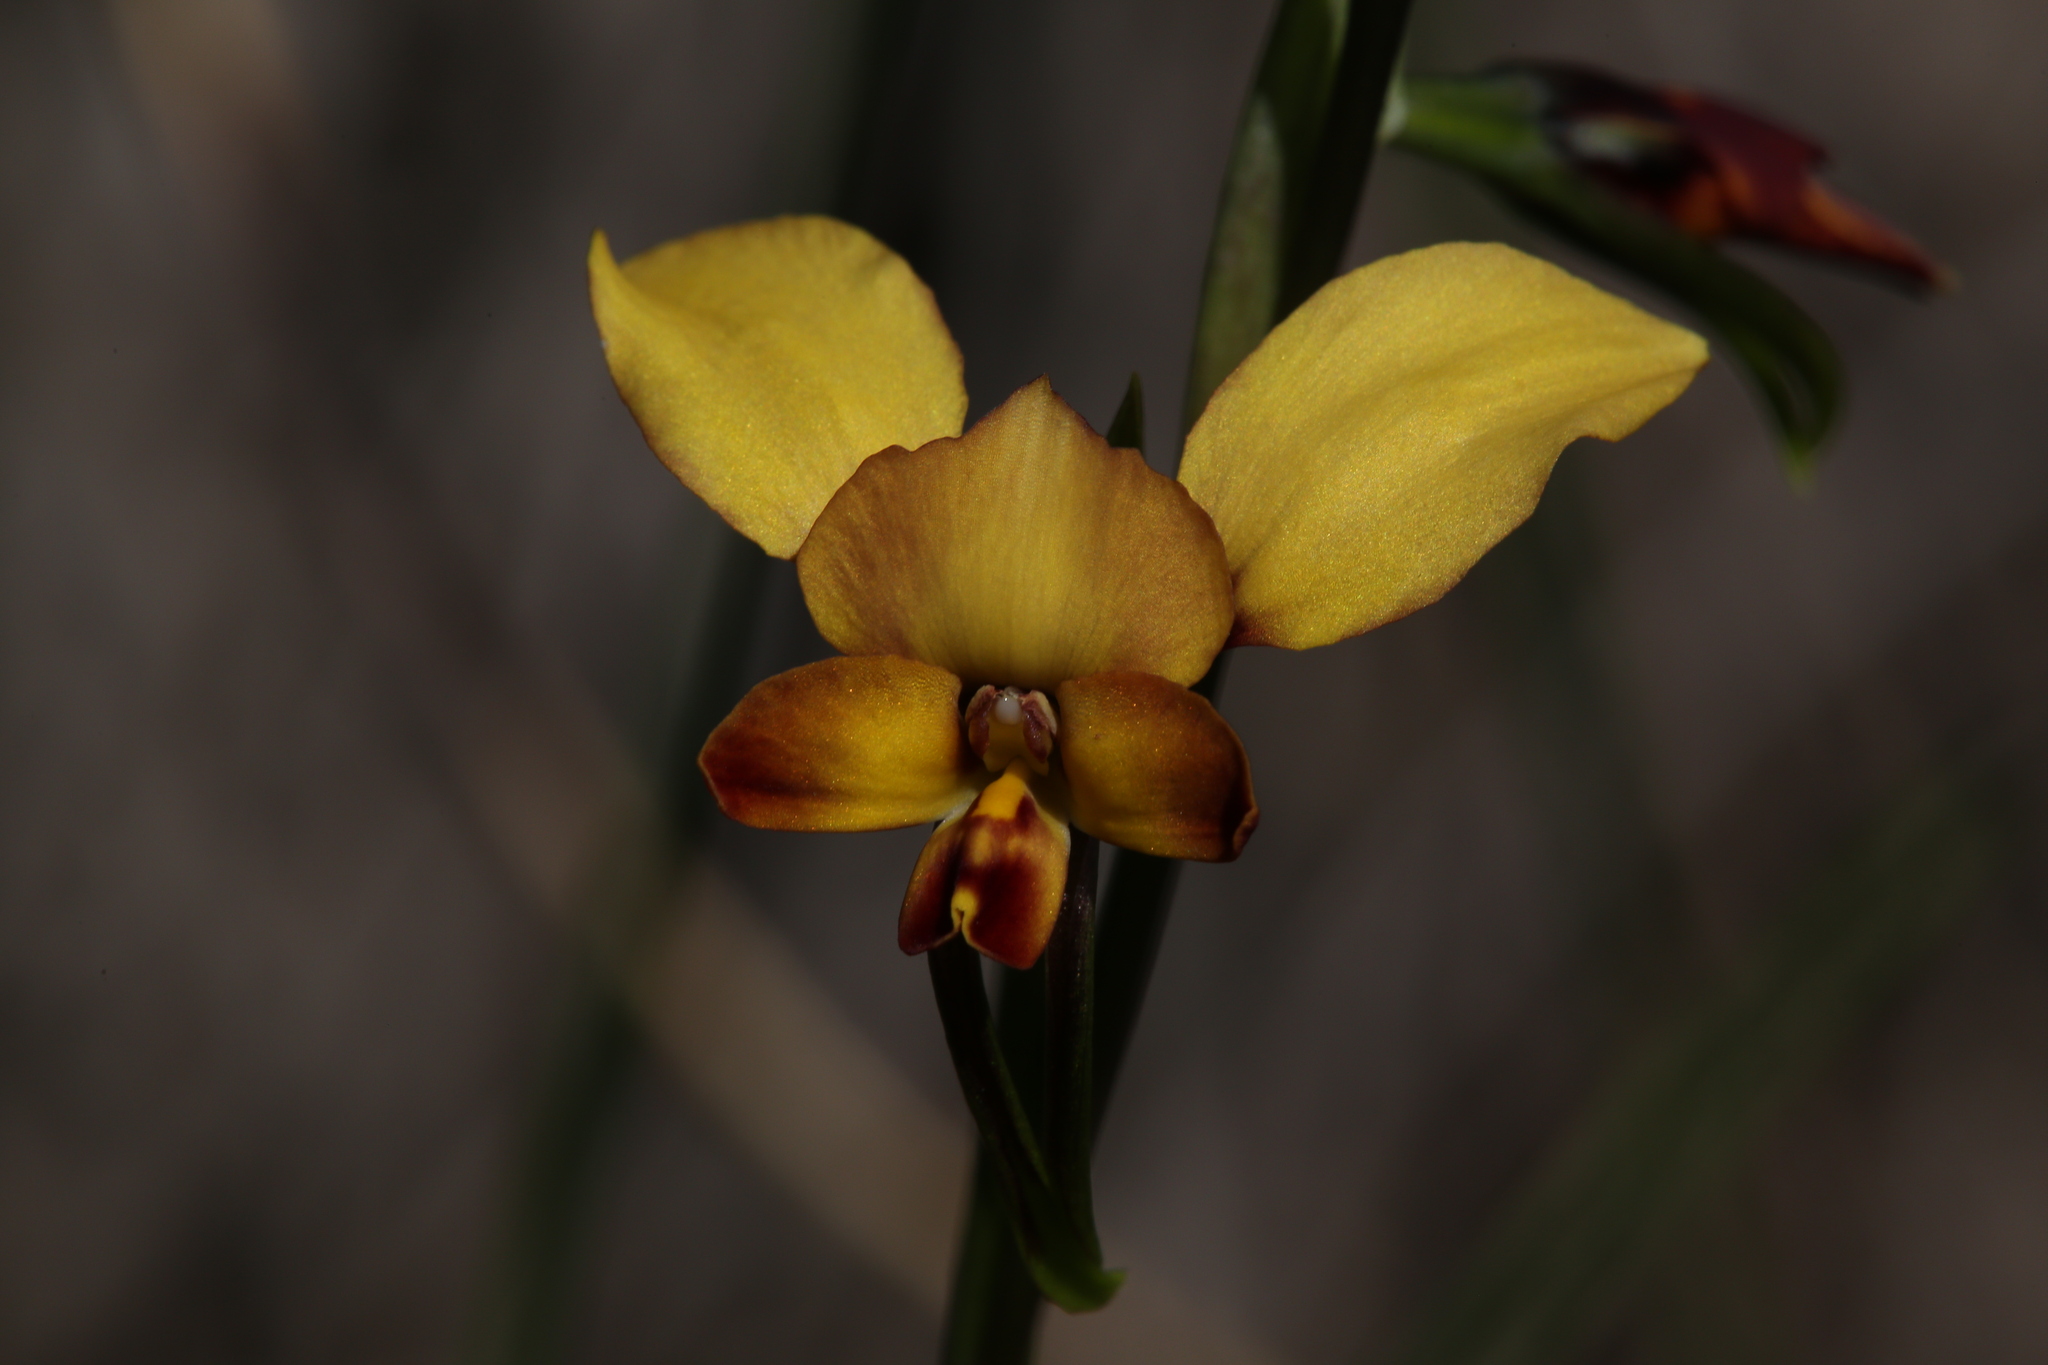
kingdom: Plantae
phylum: Tracheophyta
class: Liliopsida
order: Asparagales
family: Orchidaceae
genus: Diuris
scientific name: Diuris brumalis
